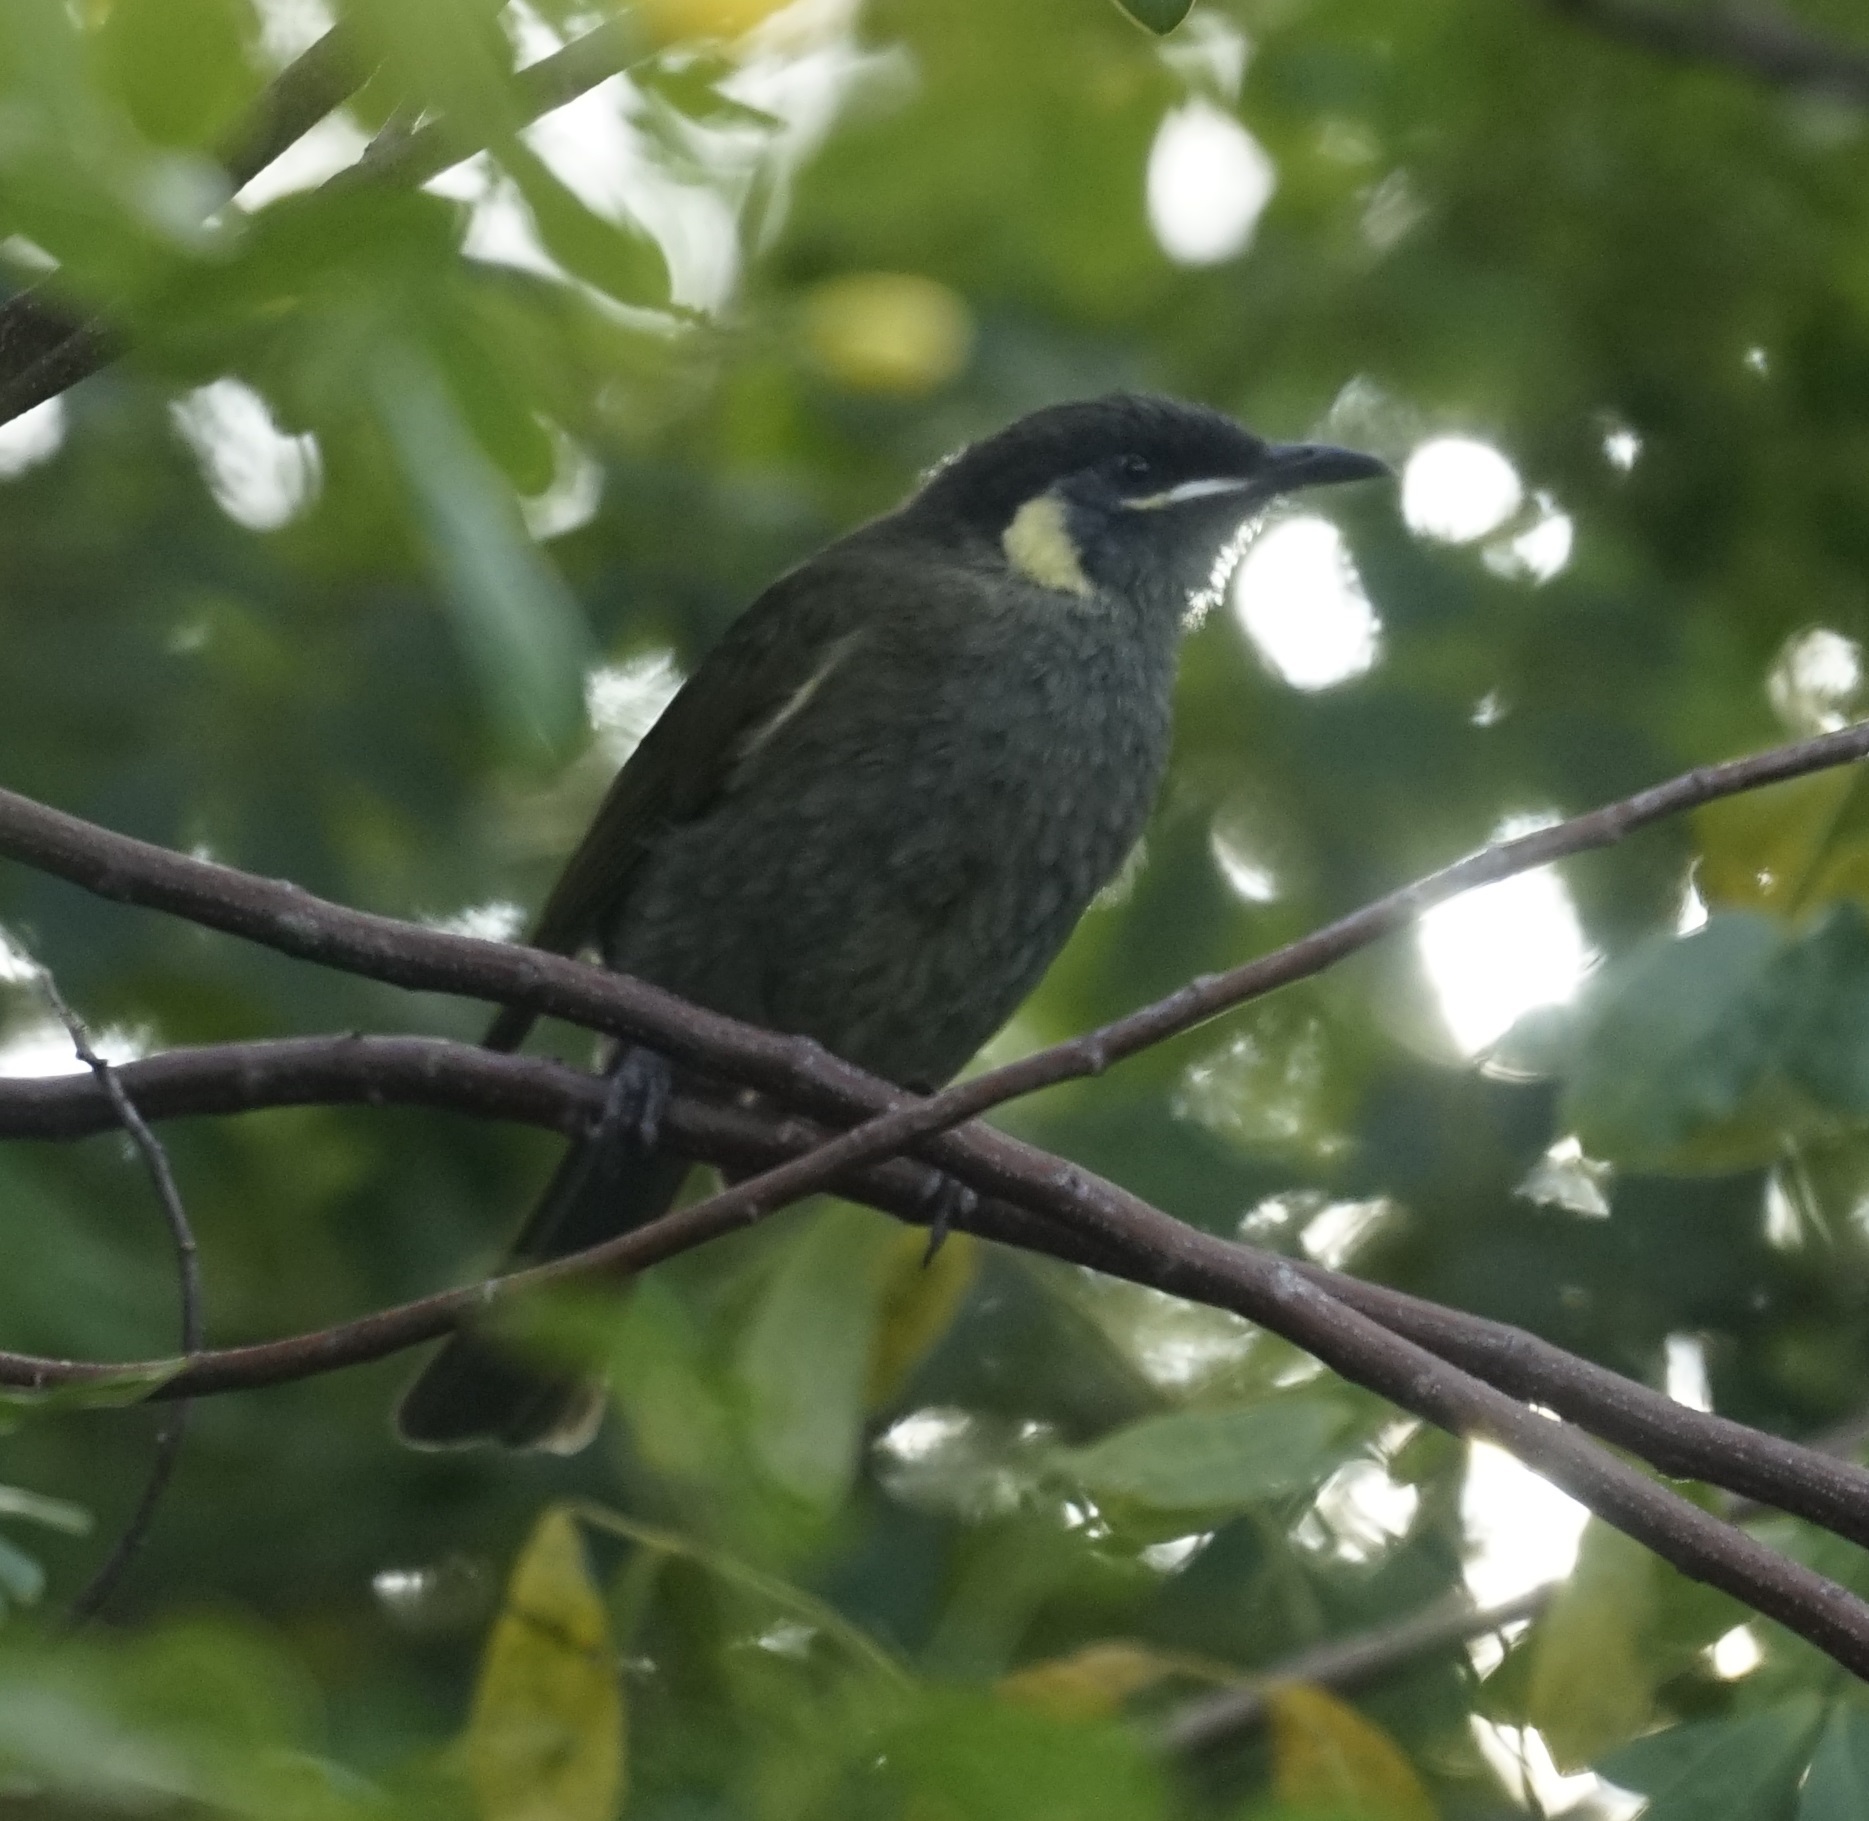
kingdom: Animalia
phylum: Chordata
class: Aves
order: Passeriformes
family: Meliphagidae
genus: Meliphaga
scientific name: Meliphaga lewinii
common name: Lewin's honeyeater
